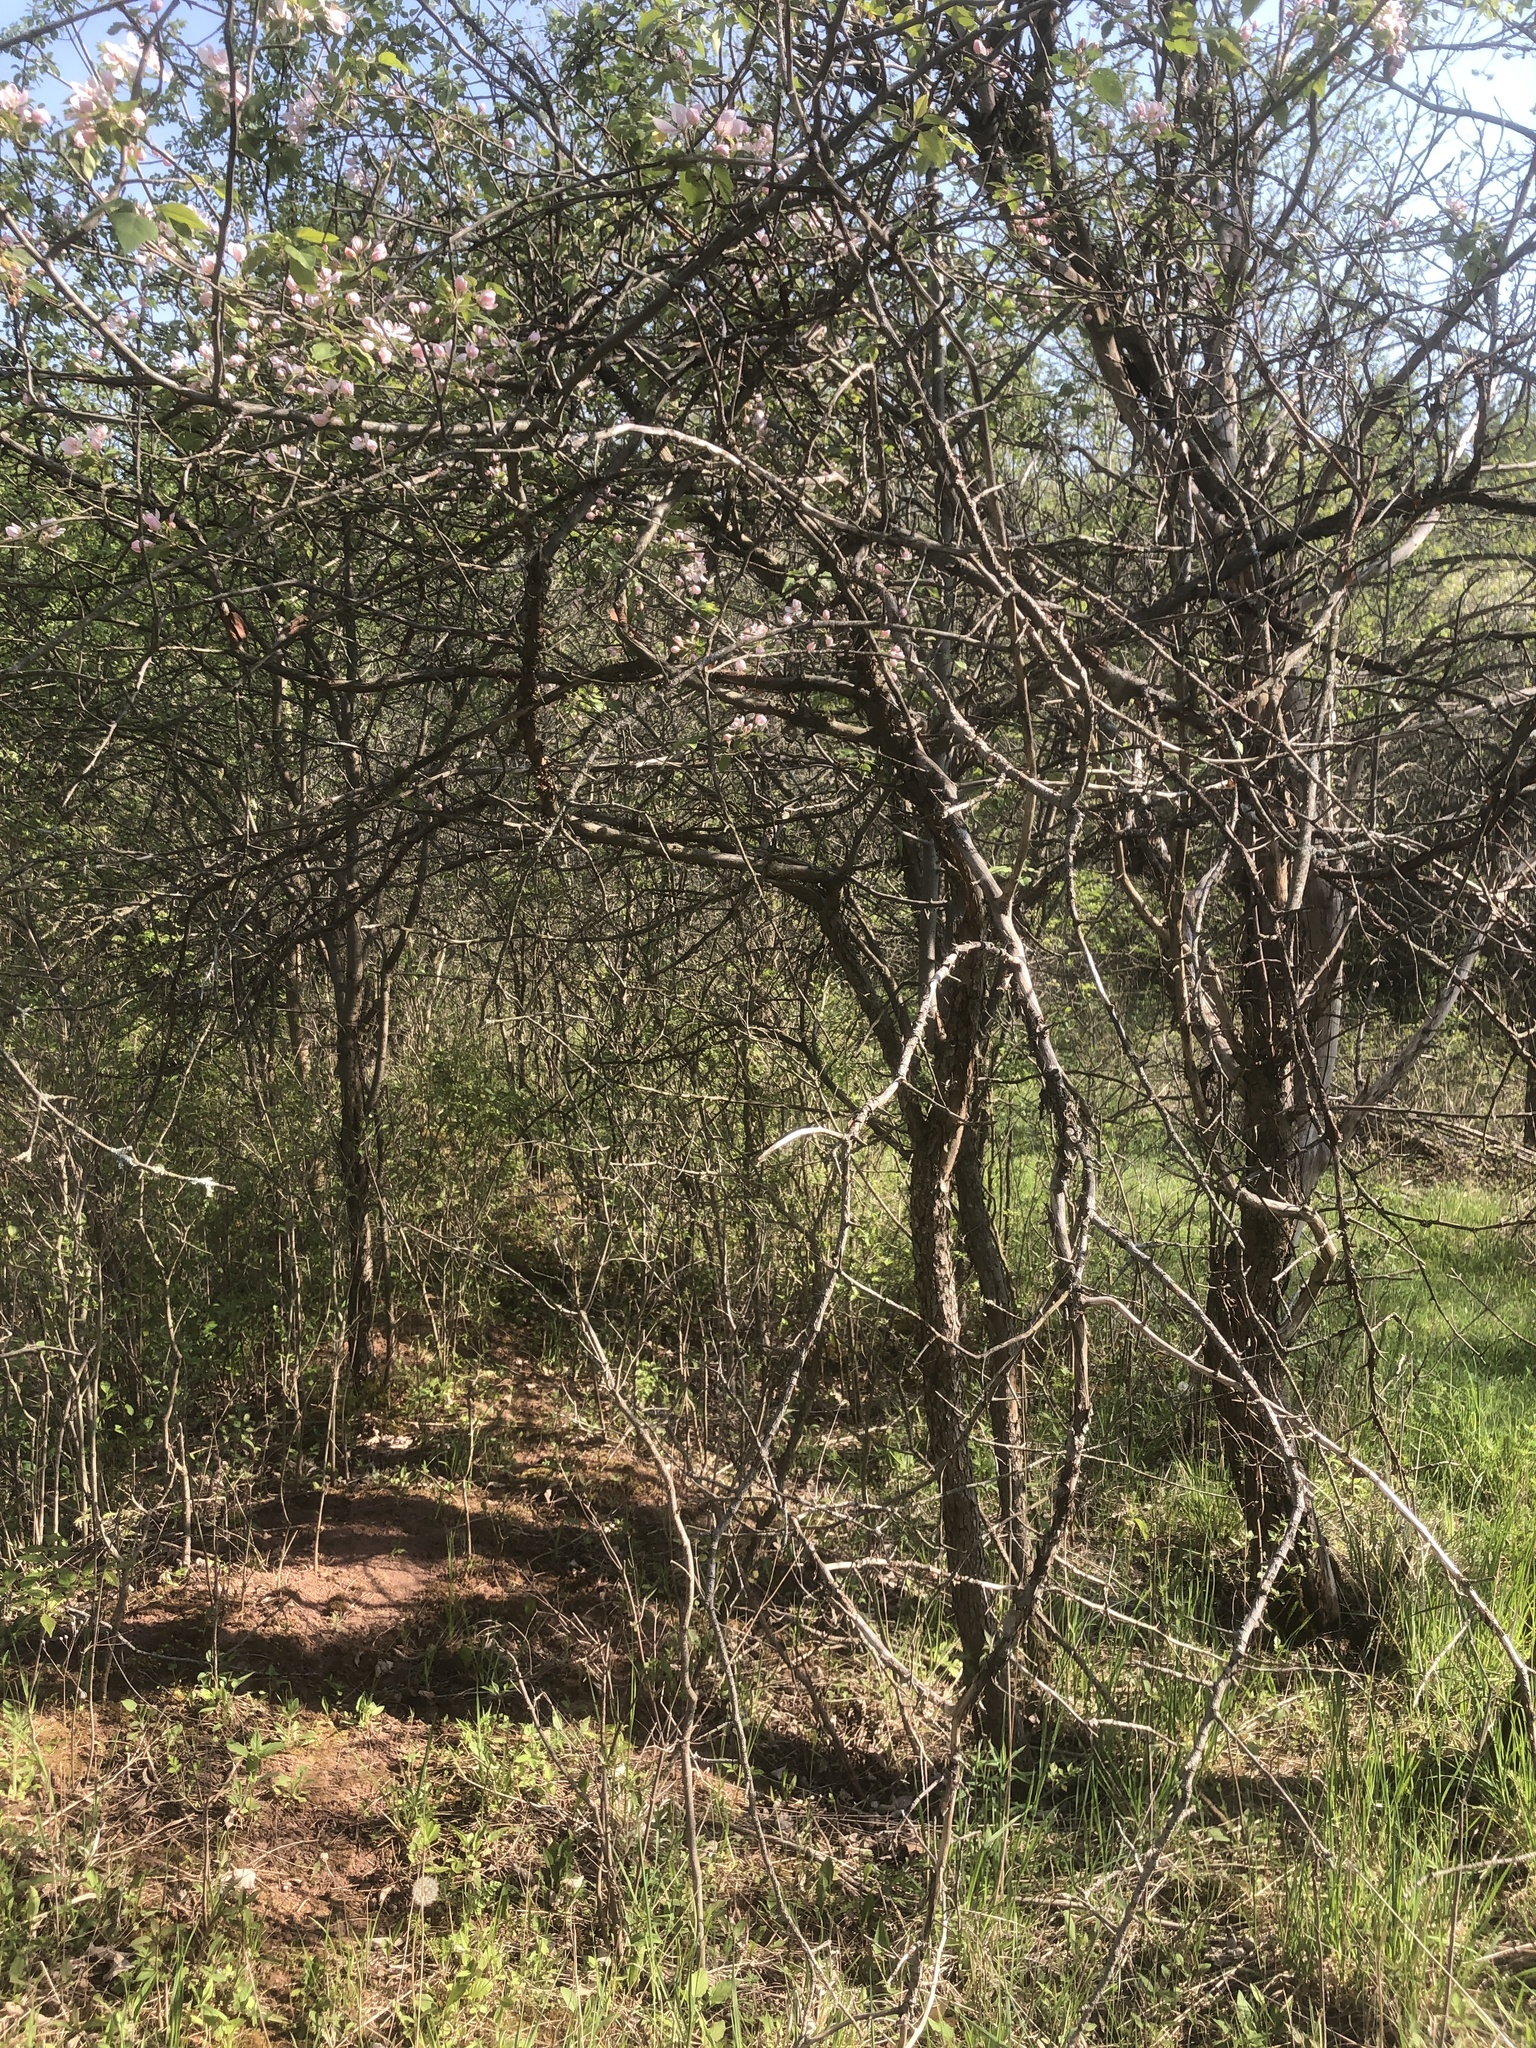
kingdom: Plantae
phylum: Tracheophyta
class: Magnoliopsida
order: Rosales
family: Rosaceae
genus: Malus
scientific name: Malus coronaria
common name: Sweet crab apple
